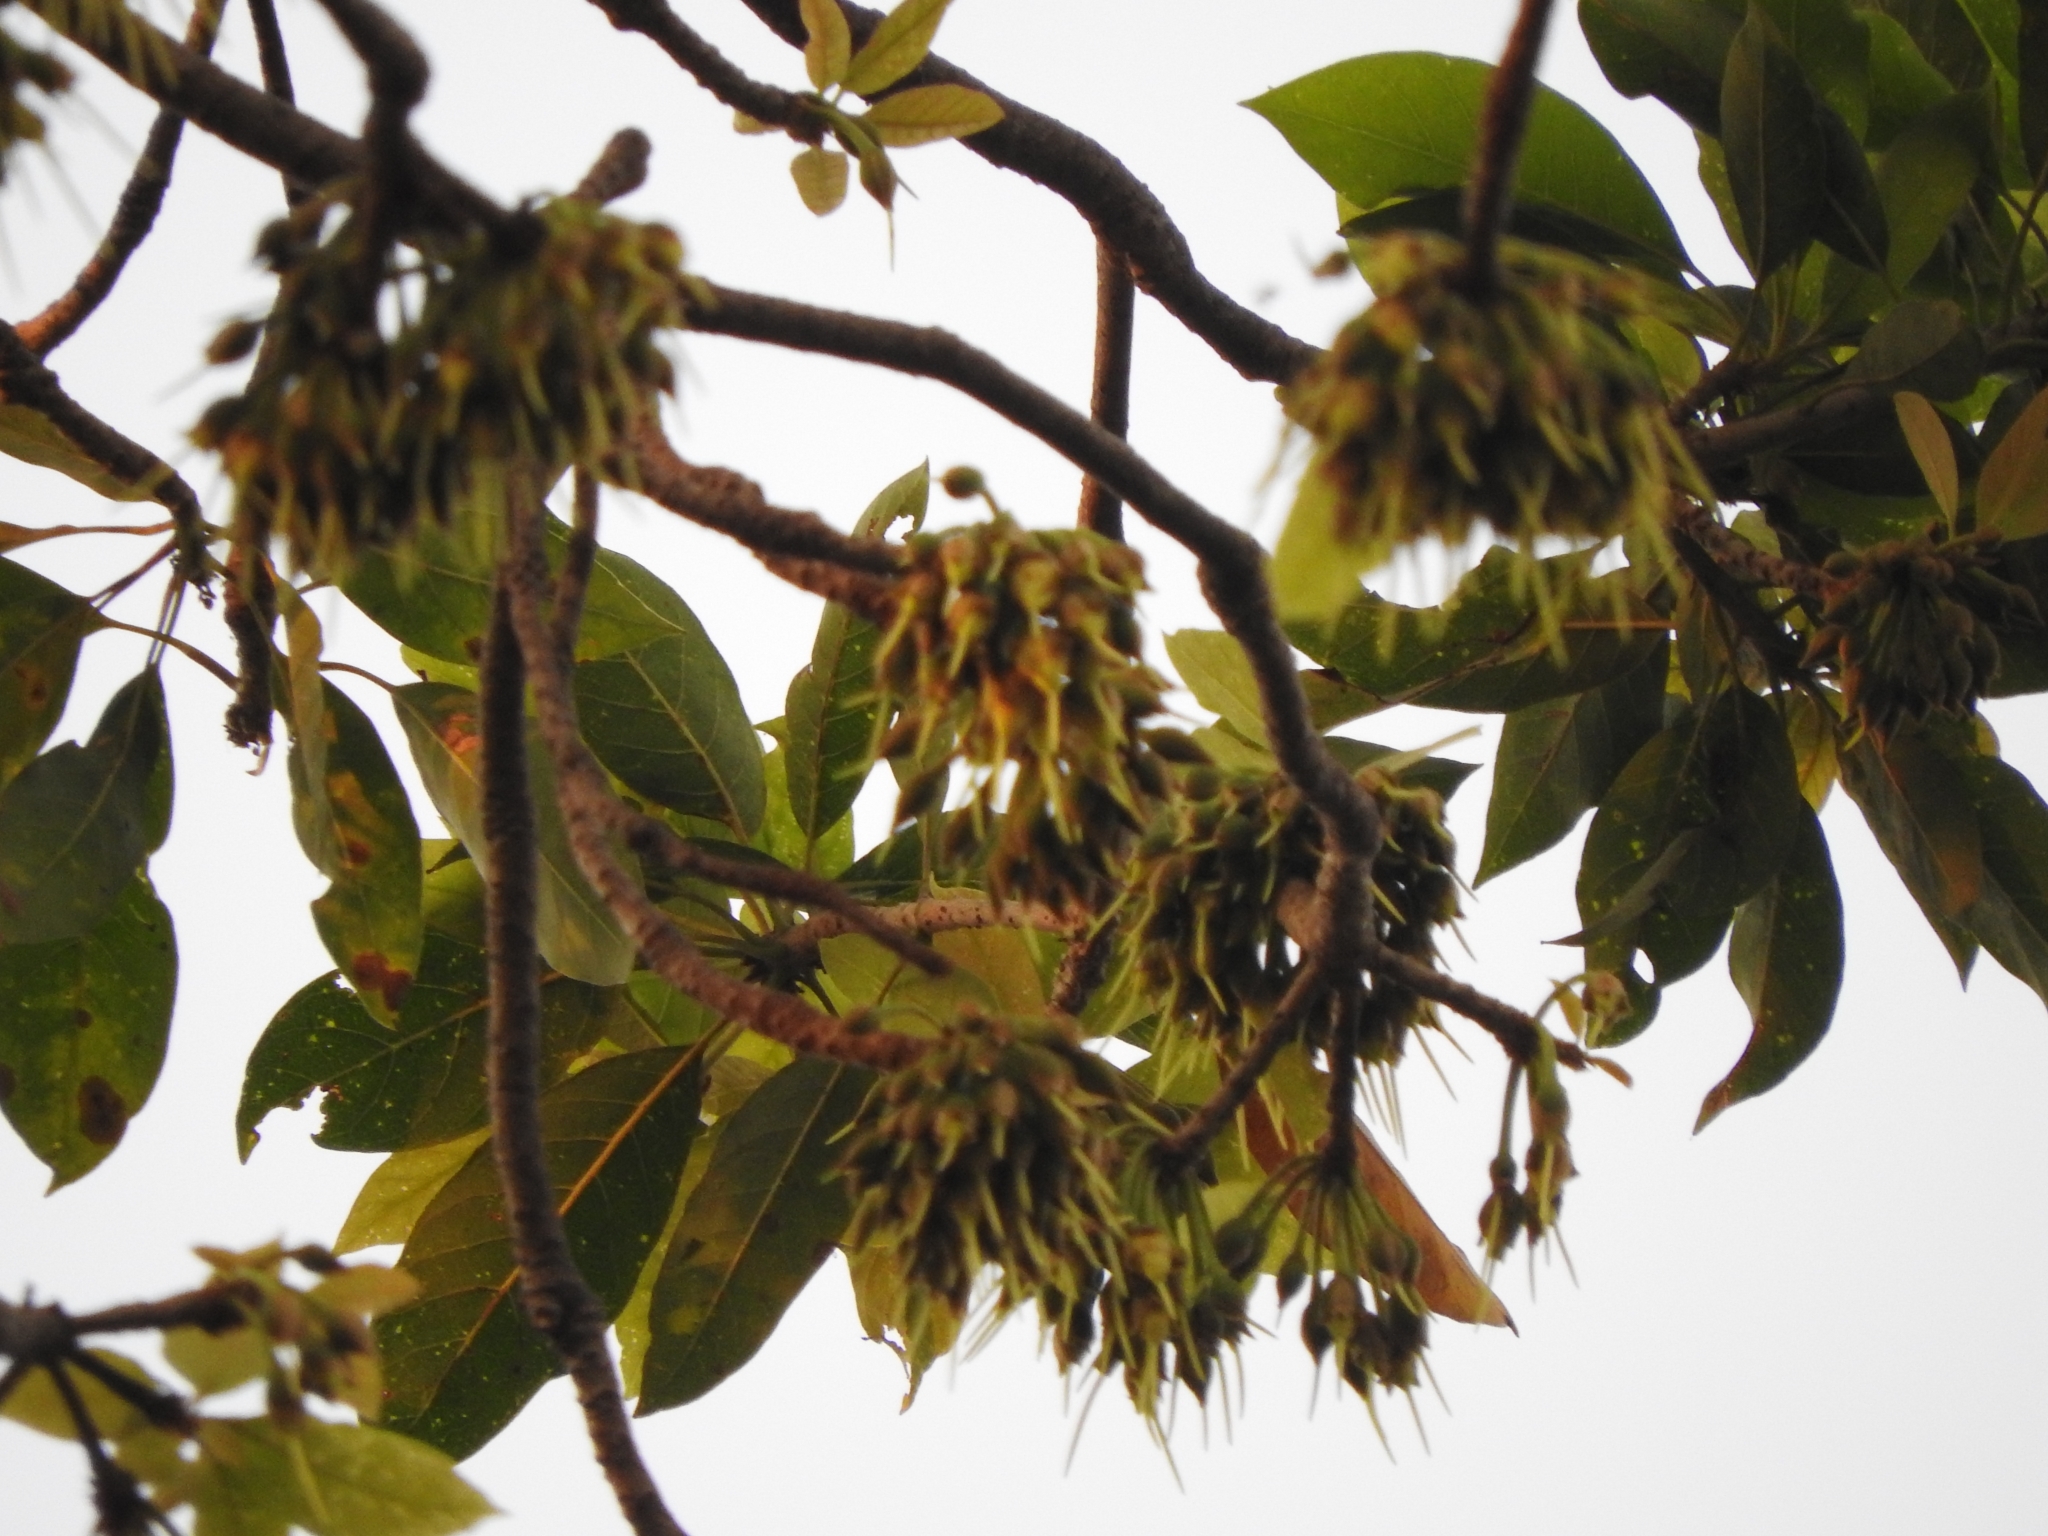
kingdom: Plantae
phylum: Tracheophyta
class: Magnoliopsida
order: Ericales
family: Sapotaceae
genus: Madhuca
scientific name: Madhuca longifolia
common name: Mowra-buttertree
